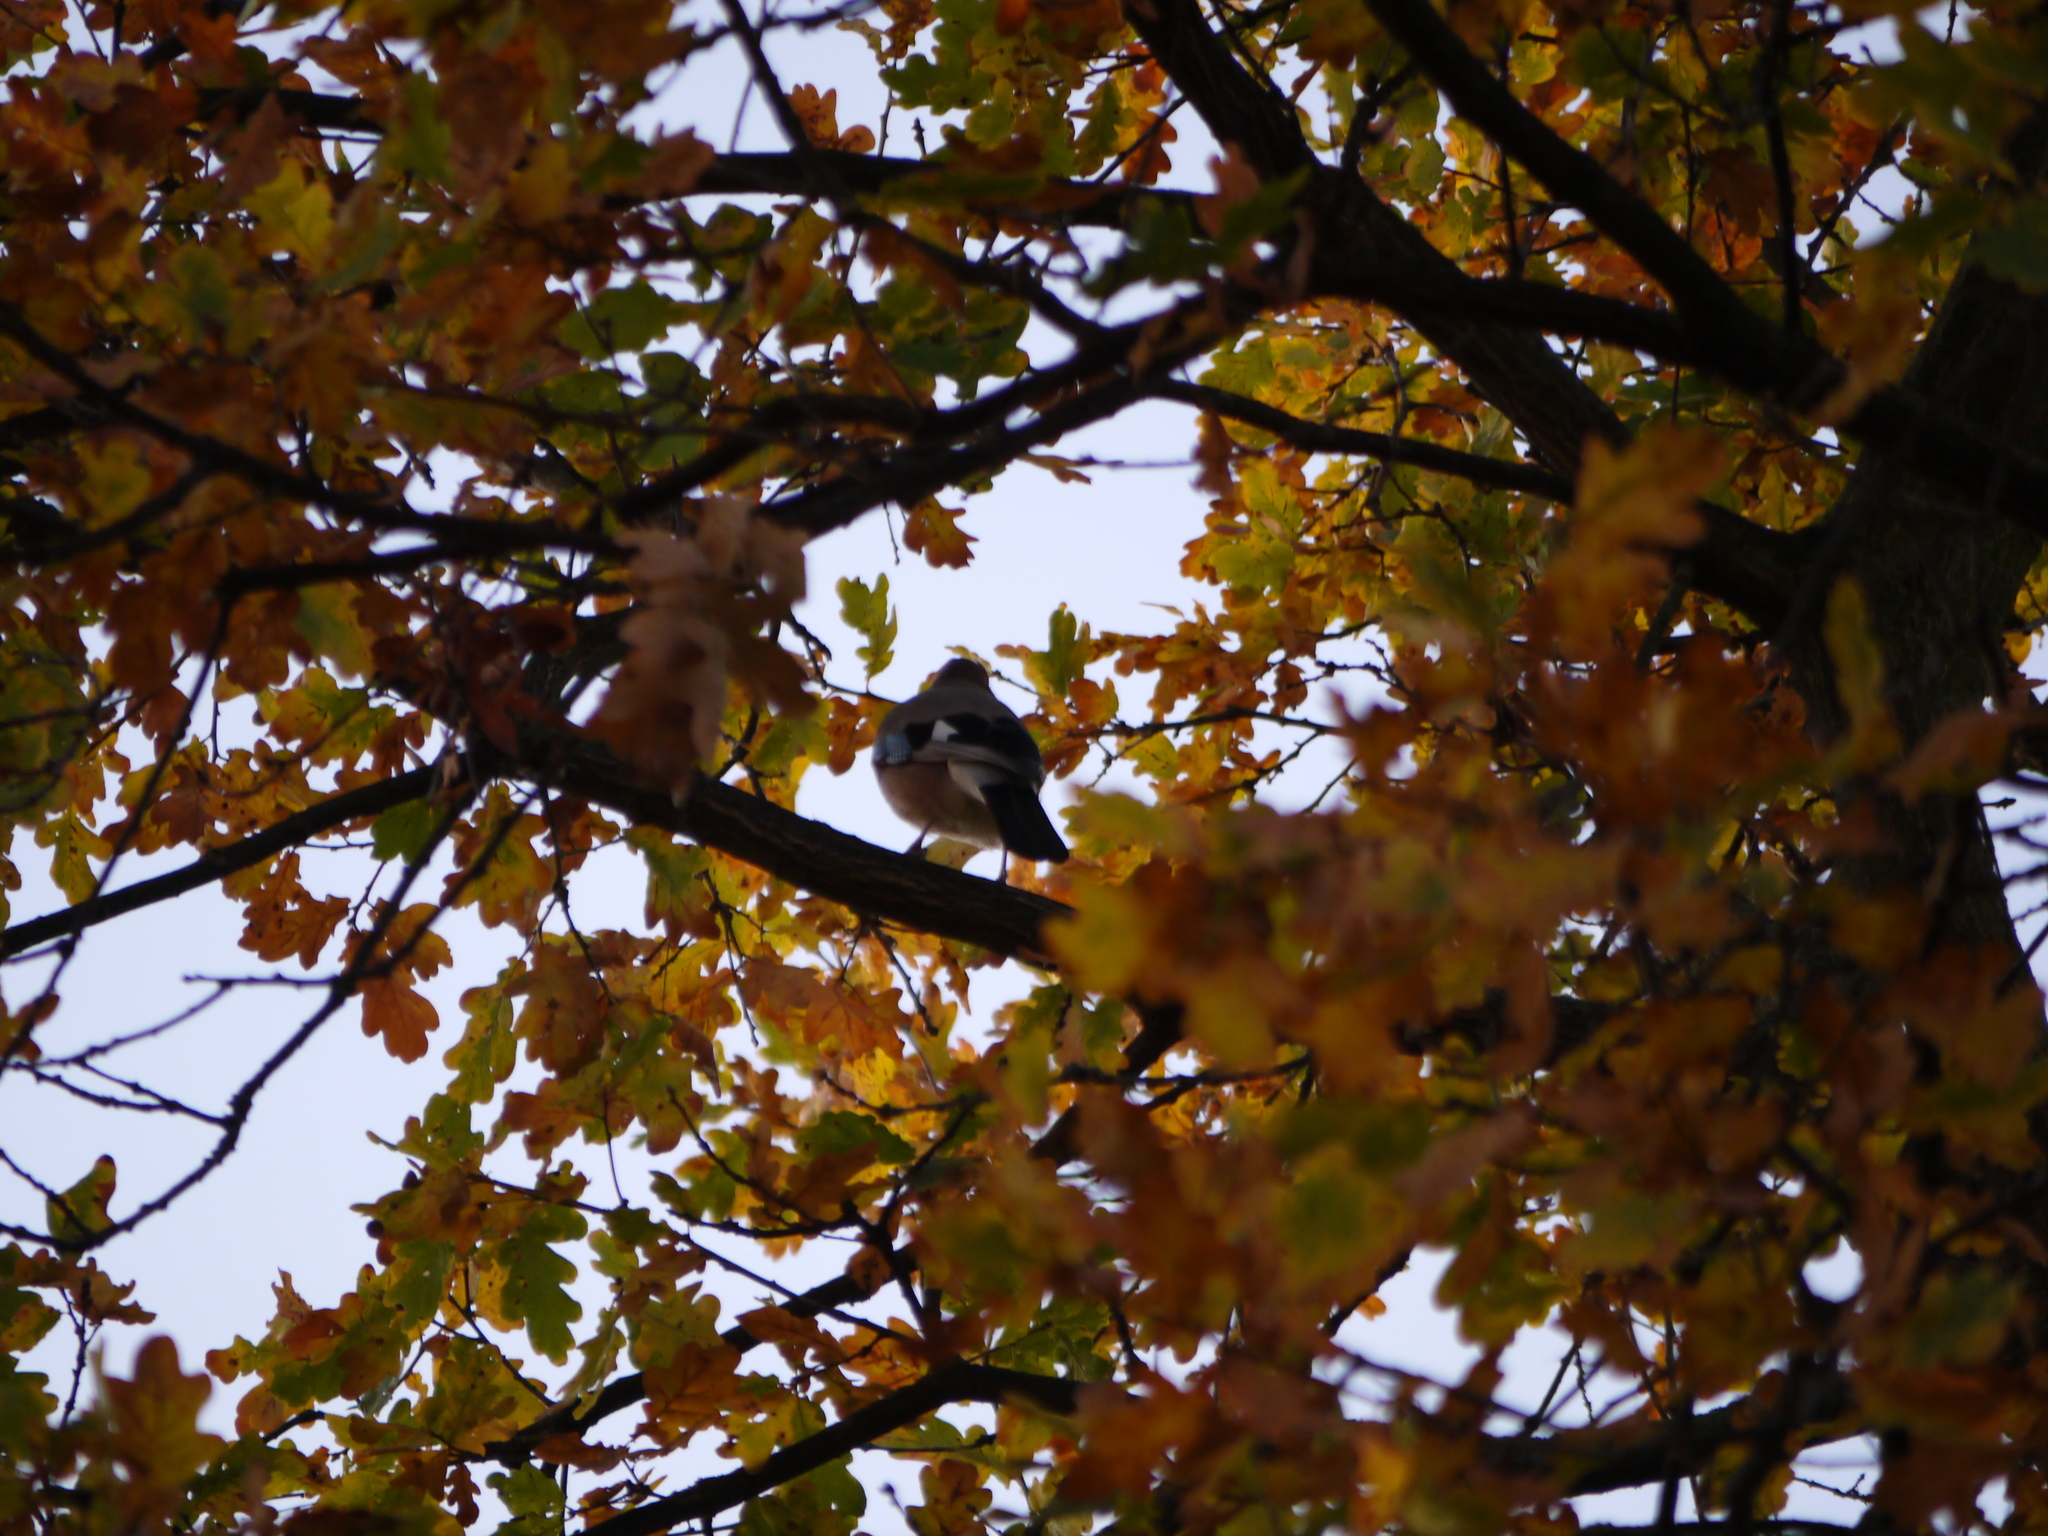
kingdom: Animalia
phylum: Chordata
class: Aves
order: Passeriformes
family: Corvidae
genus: Garrulus
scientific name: Garrulus glandarius
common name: Eurasian jay
